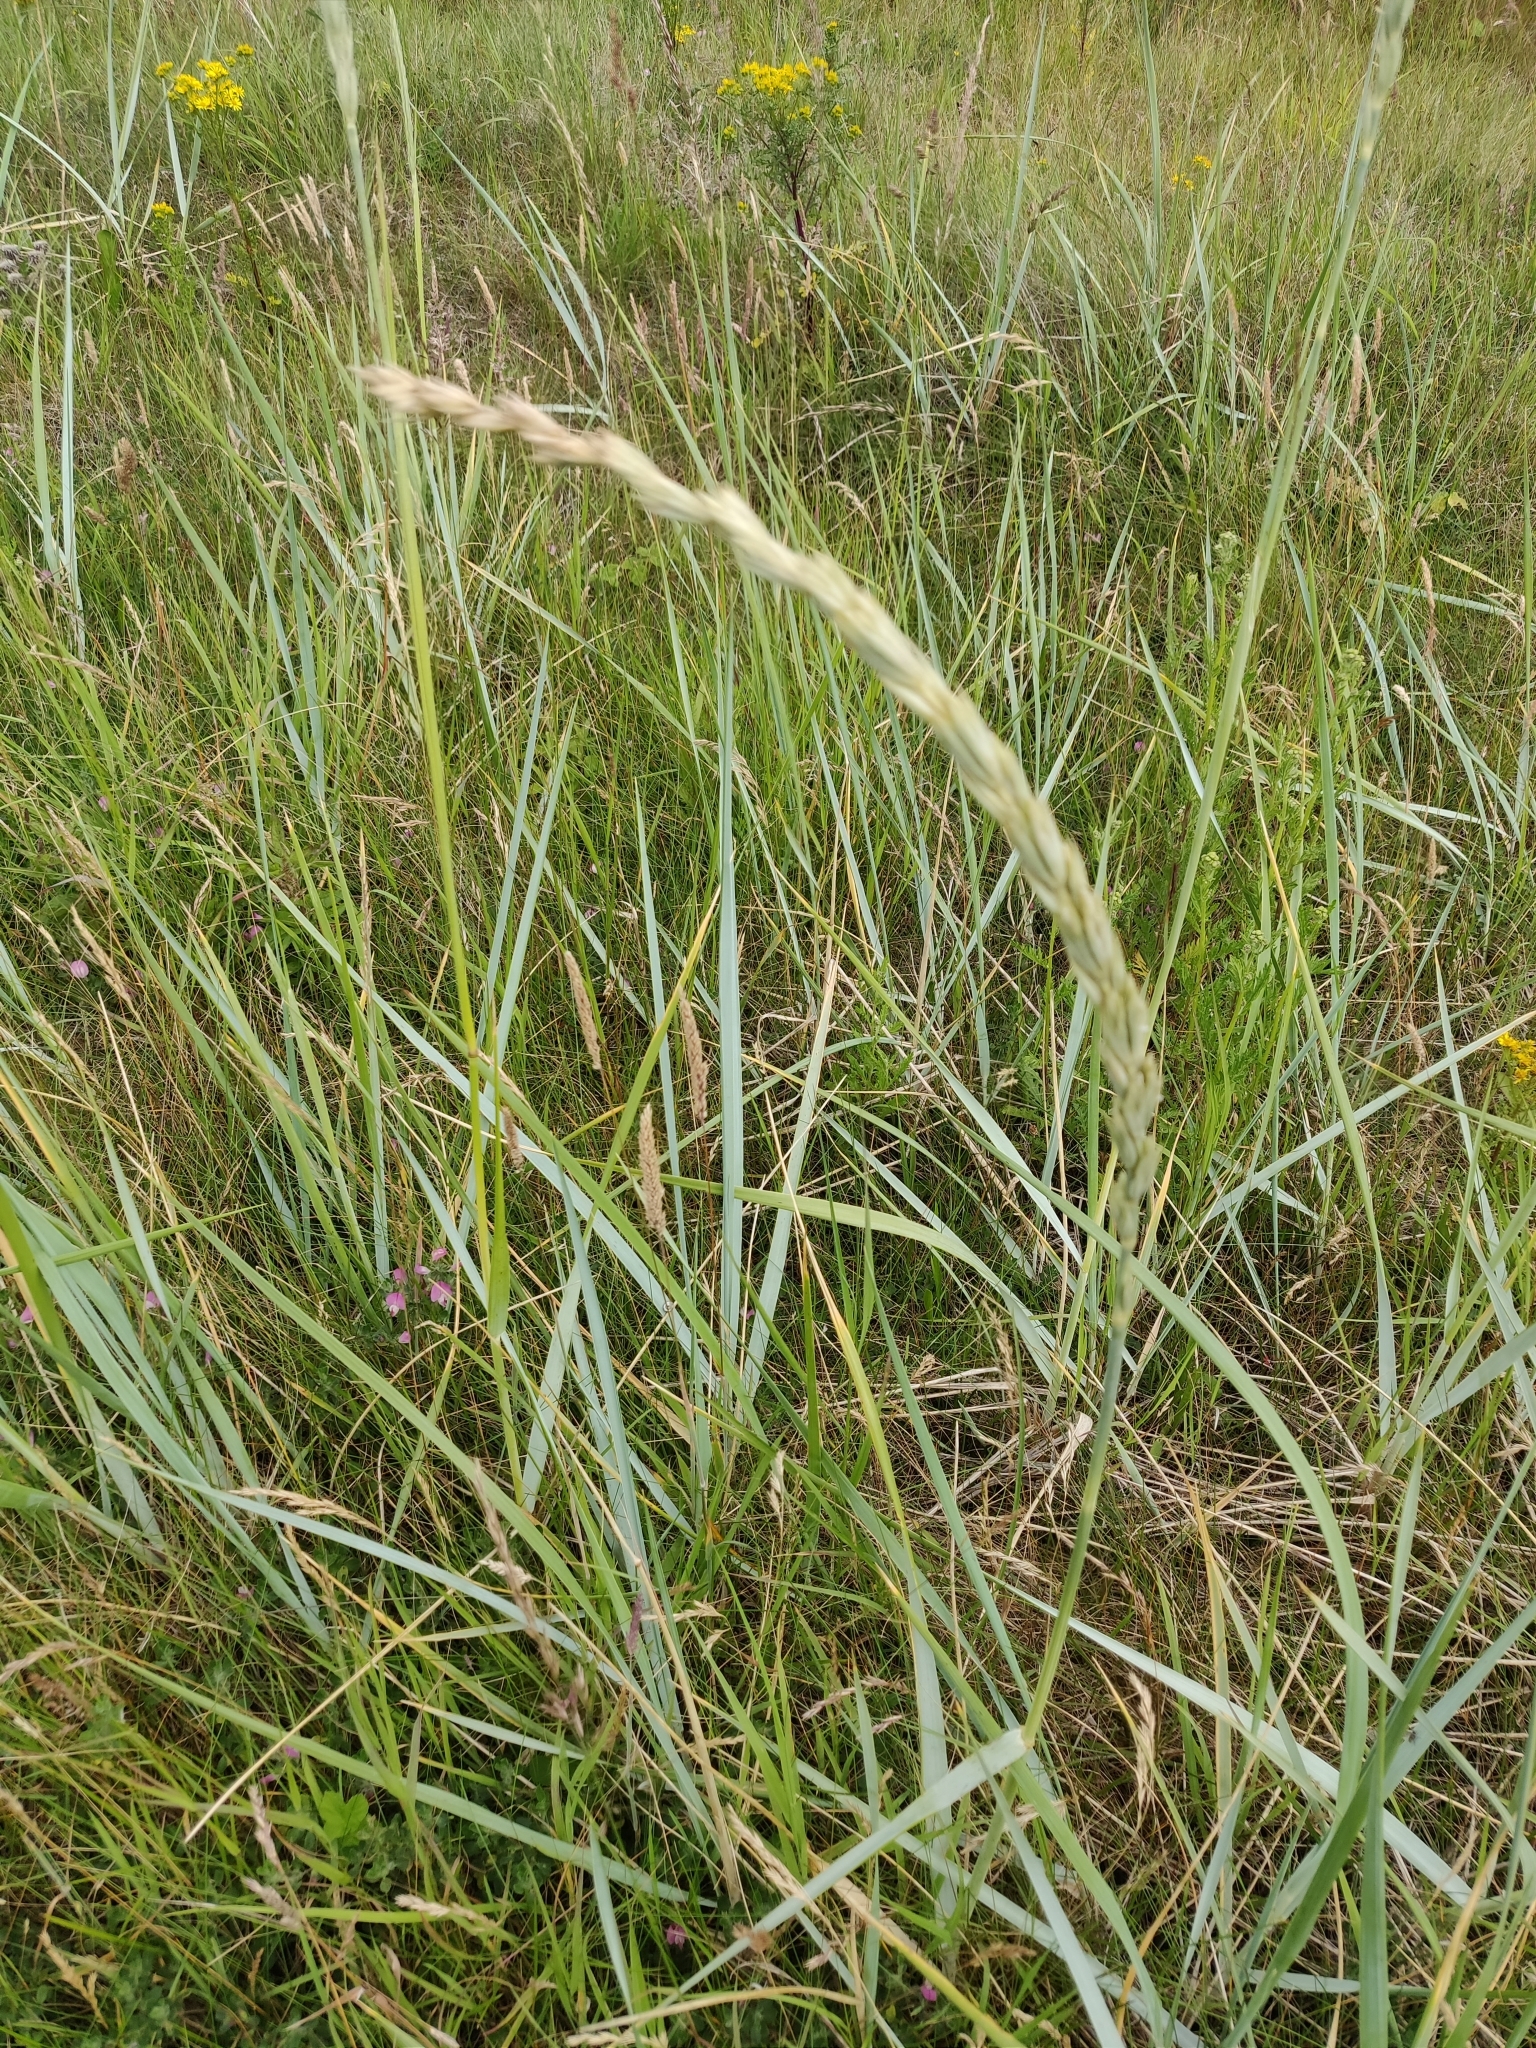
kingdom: Plantae
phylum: Tracheophyta
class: Liliopsida
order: Poales
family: Poaceae
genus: Leymus
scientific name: Leymus arenarius
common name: Lyme-grass
